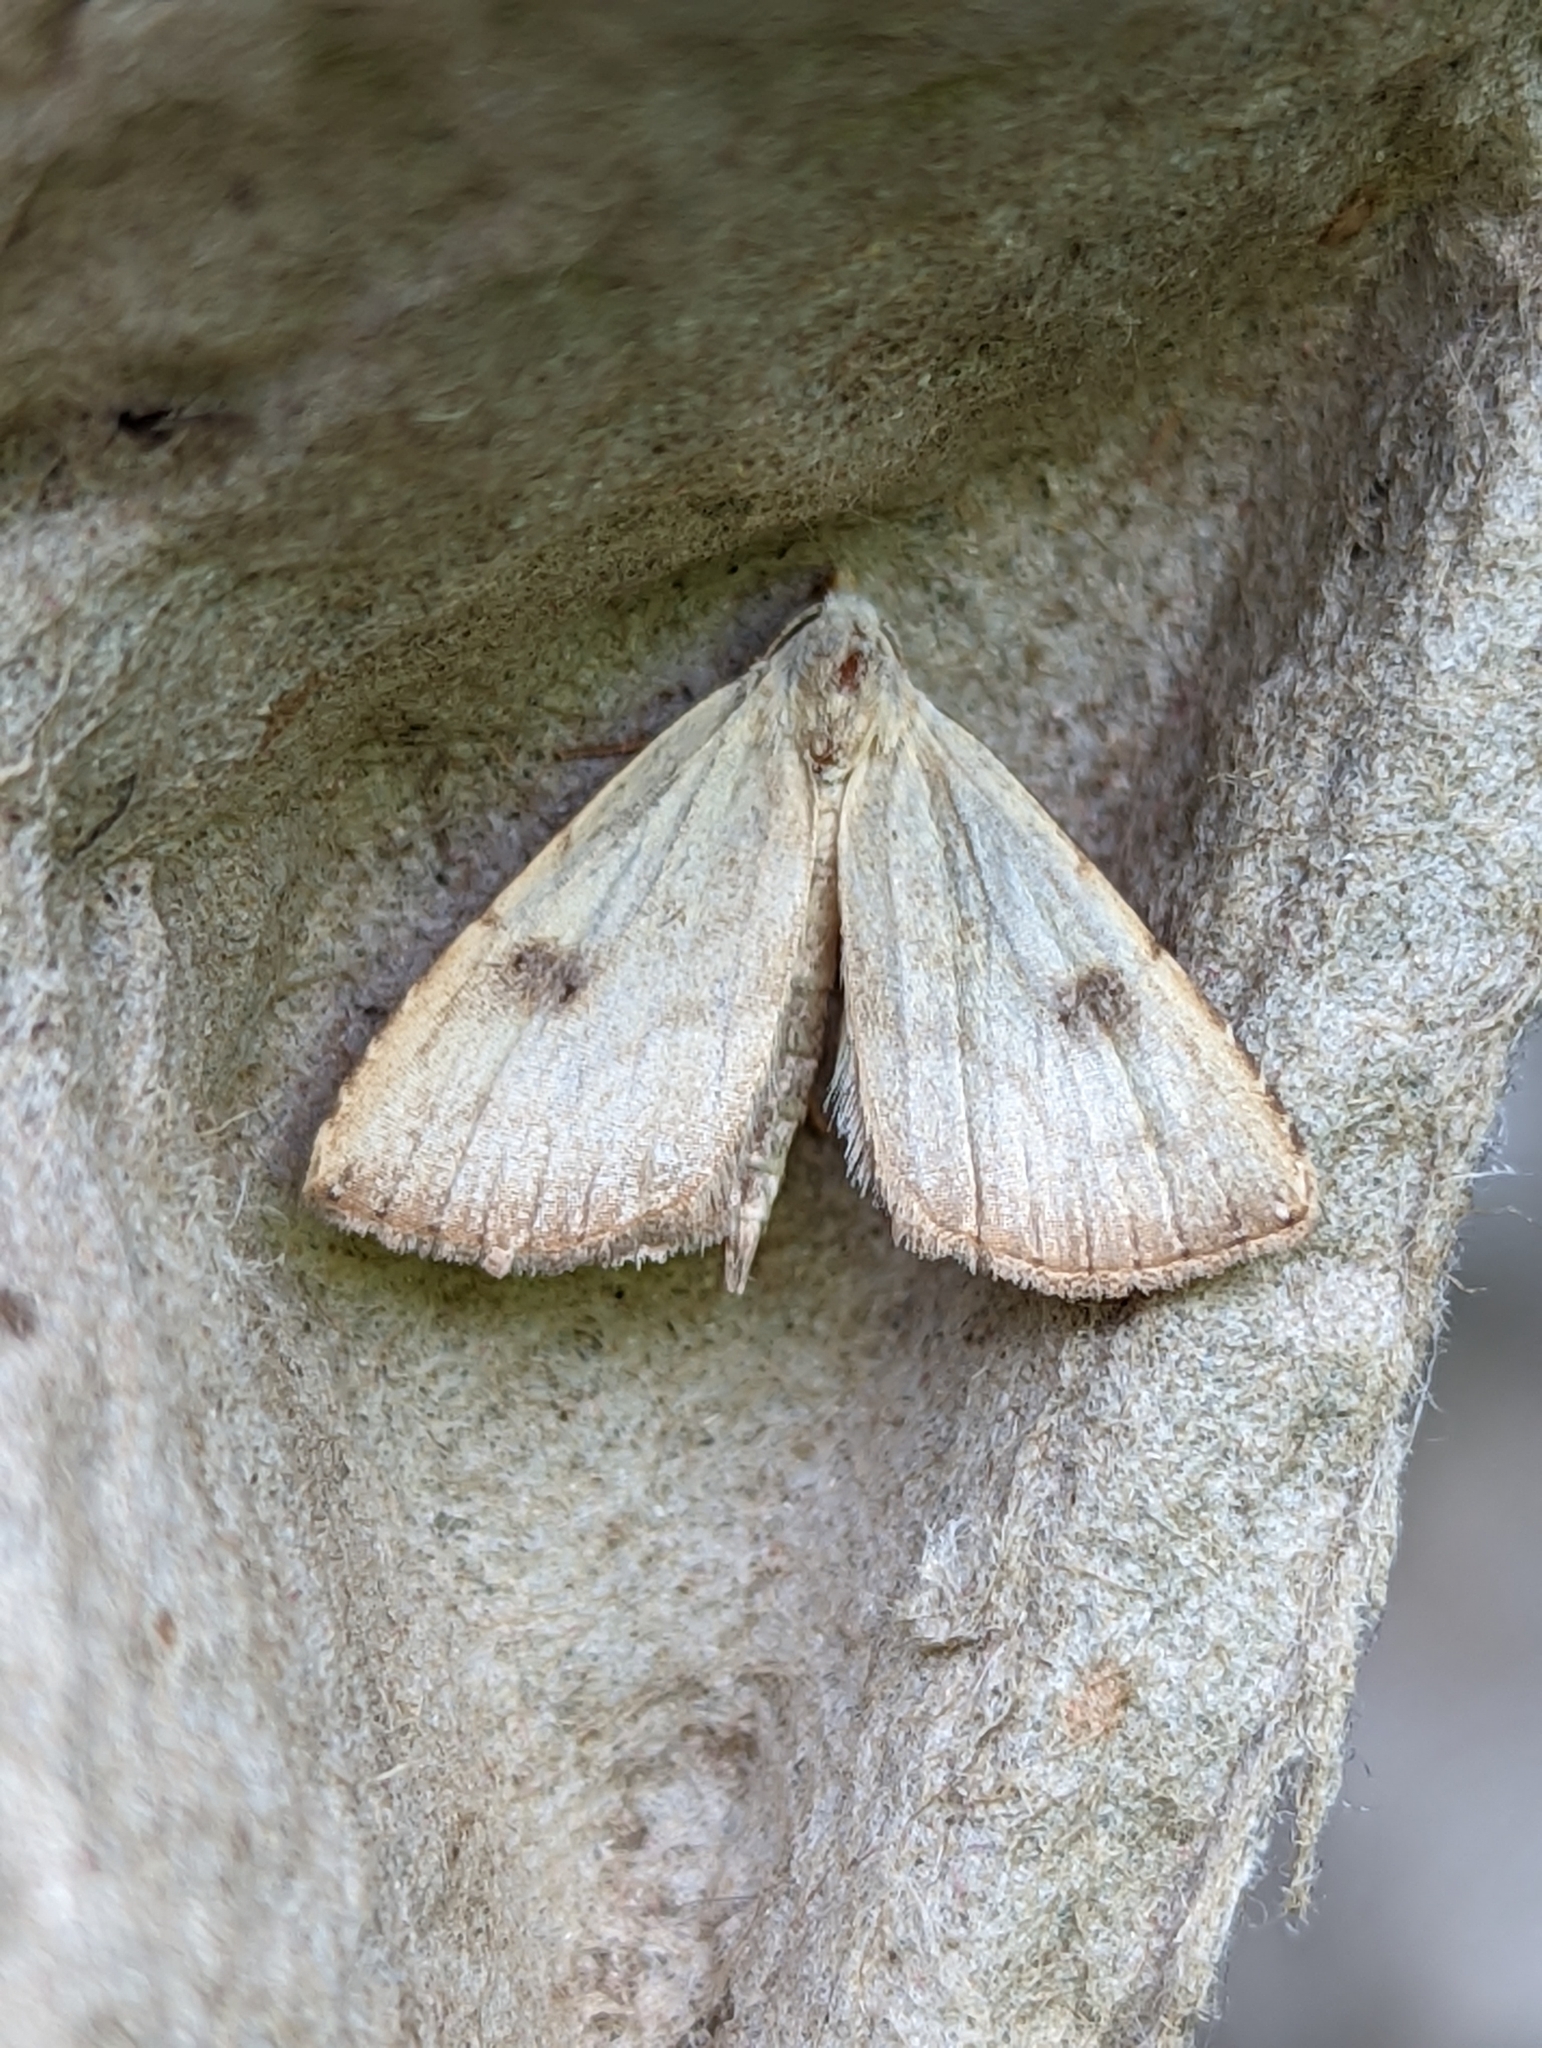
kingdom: Animalia
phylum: Arthropoda
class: Insecta
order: Lepidoptera
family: Erebidae
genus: Rivula
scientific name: Rivula sericealis
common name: Straw dot
